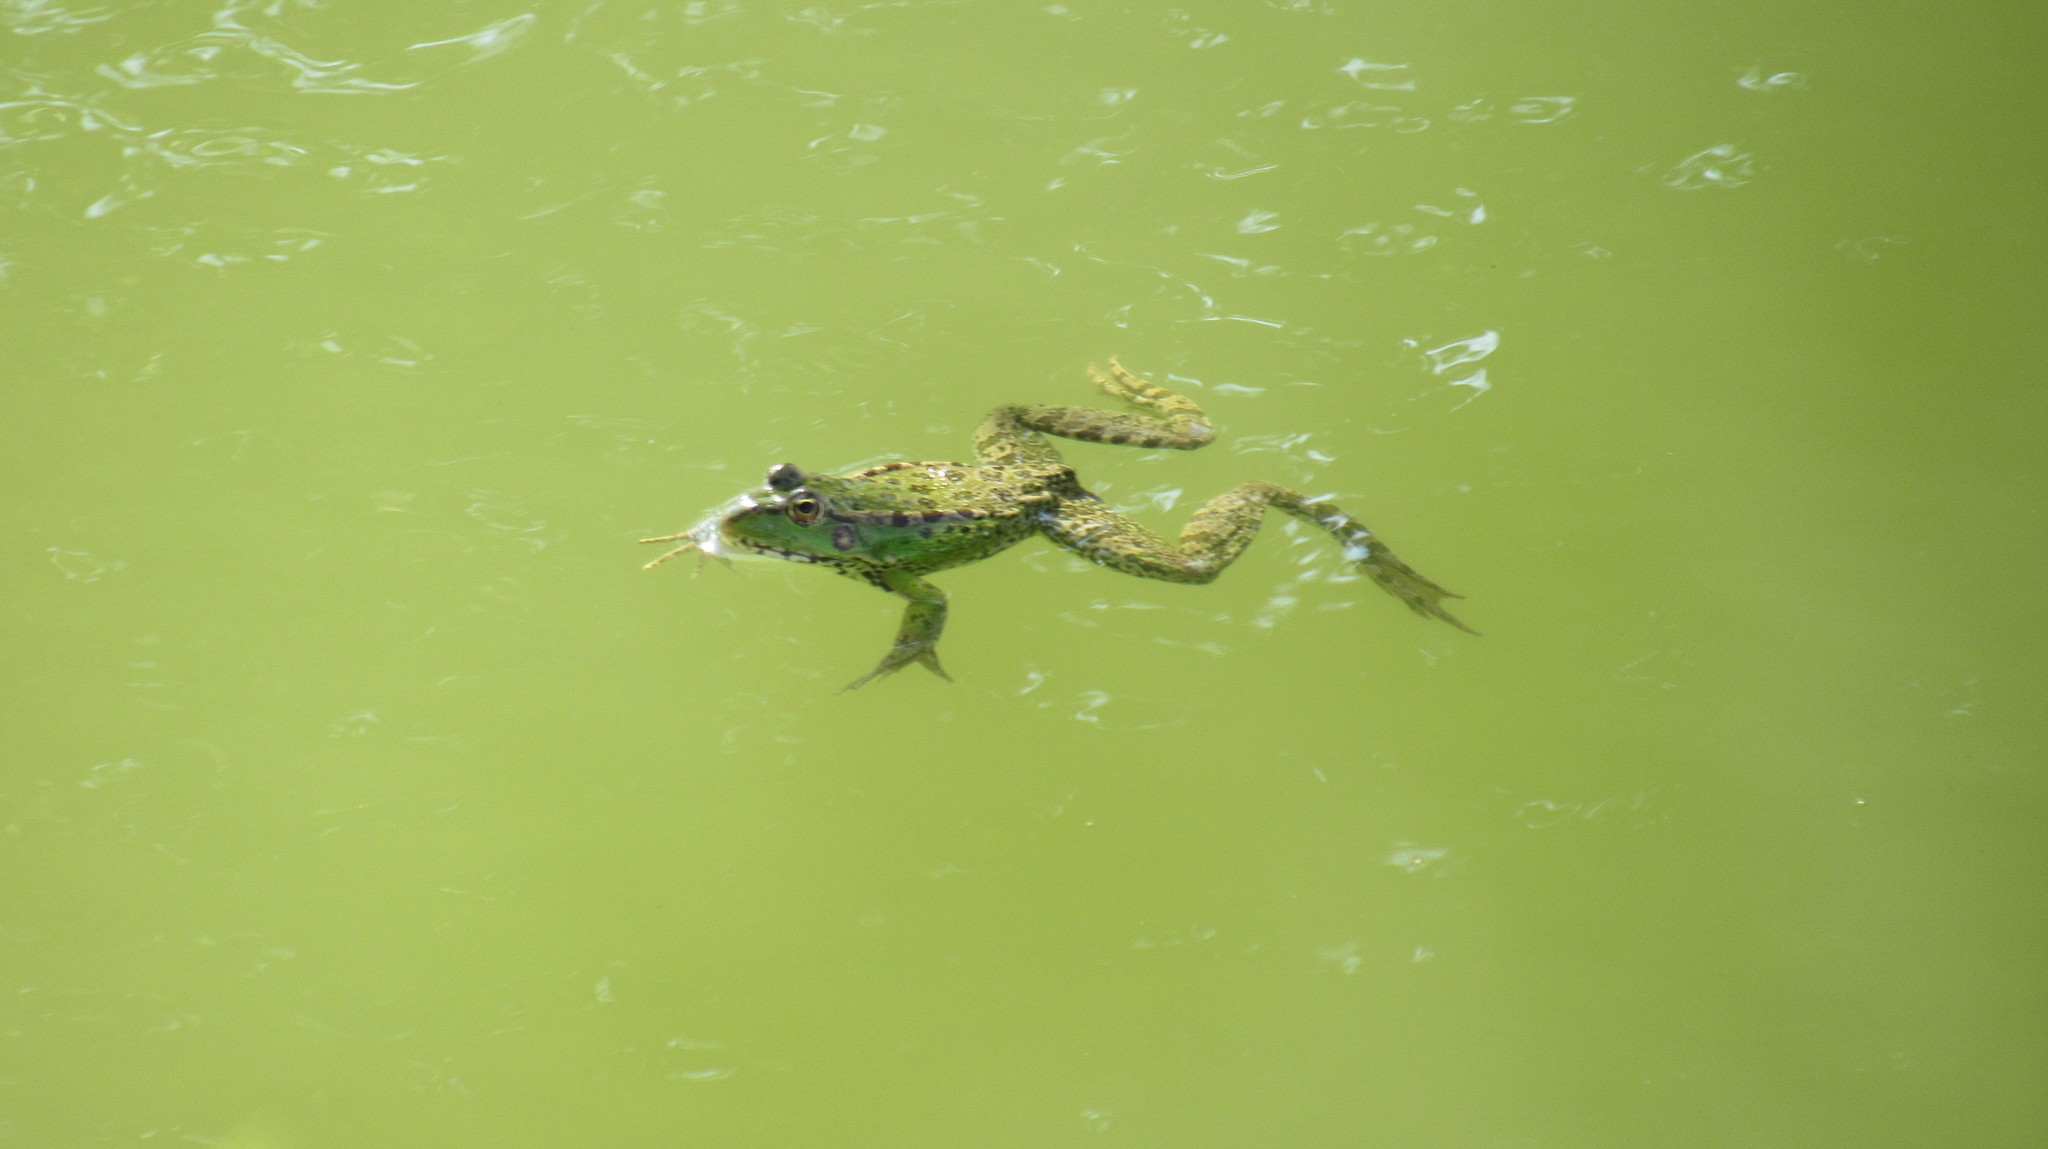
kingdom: Animalia
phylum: Chordata
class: Amphibia
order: Anura
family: Ranidae
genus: Pelophylax
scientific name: Pelophylax ridibundus
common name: Marsh frog
